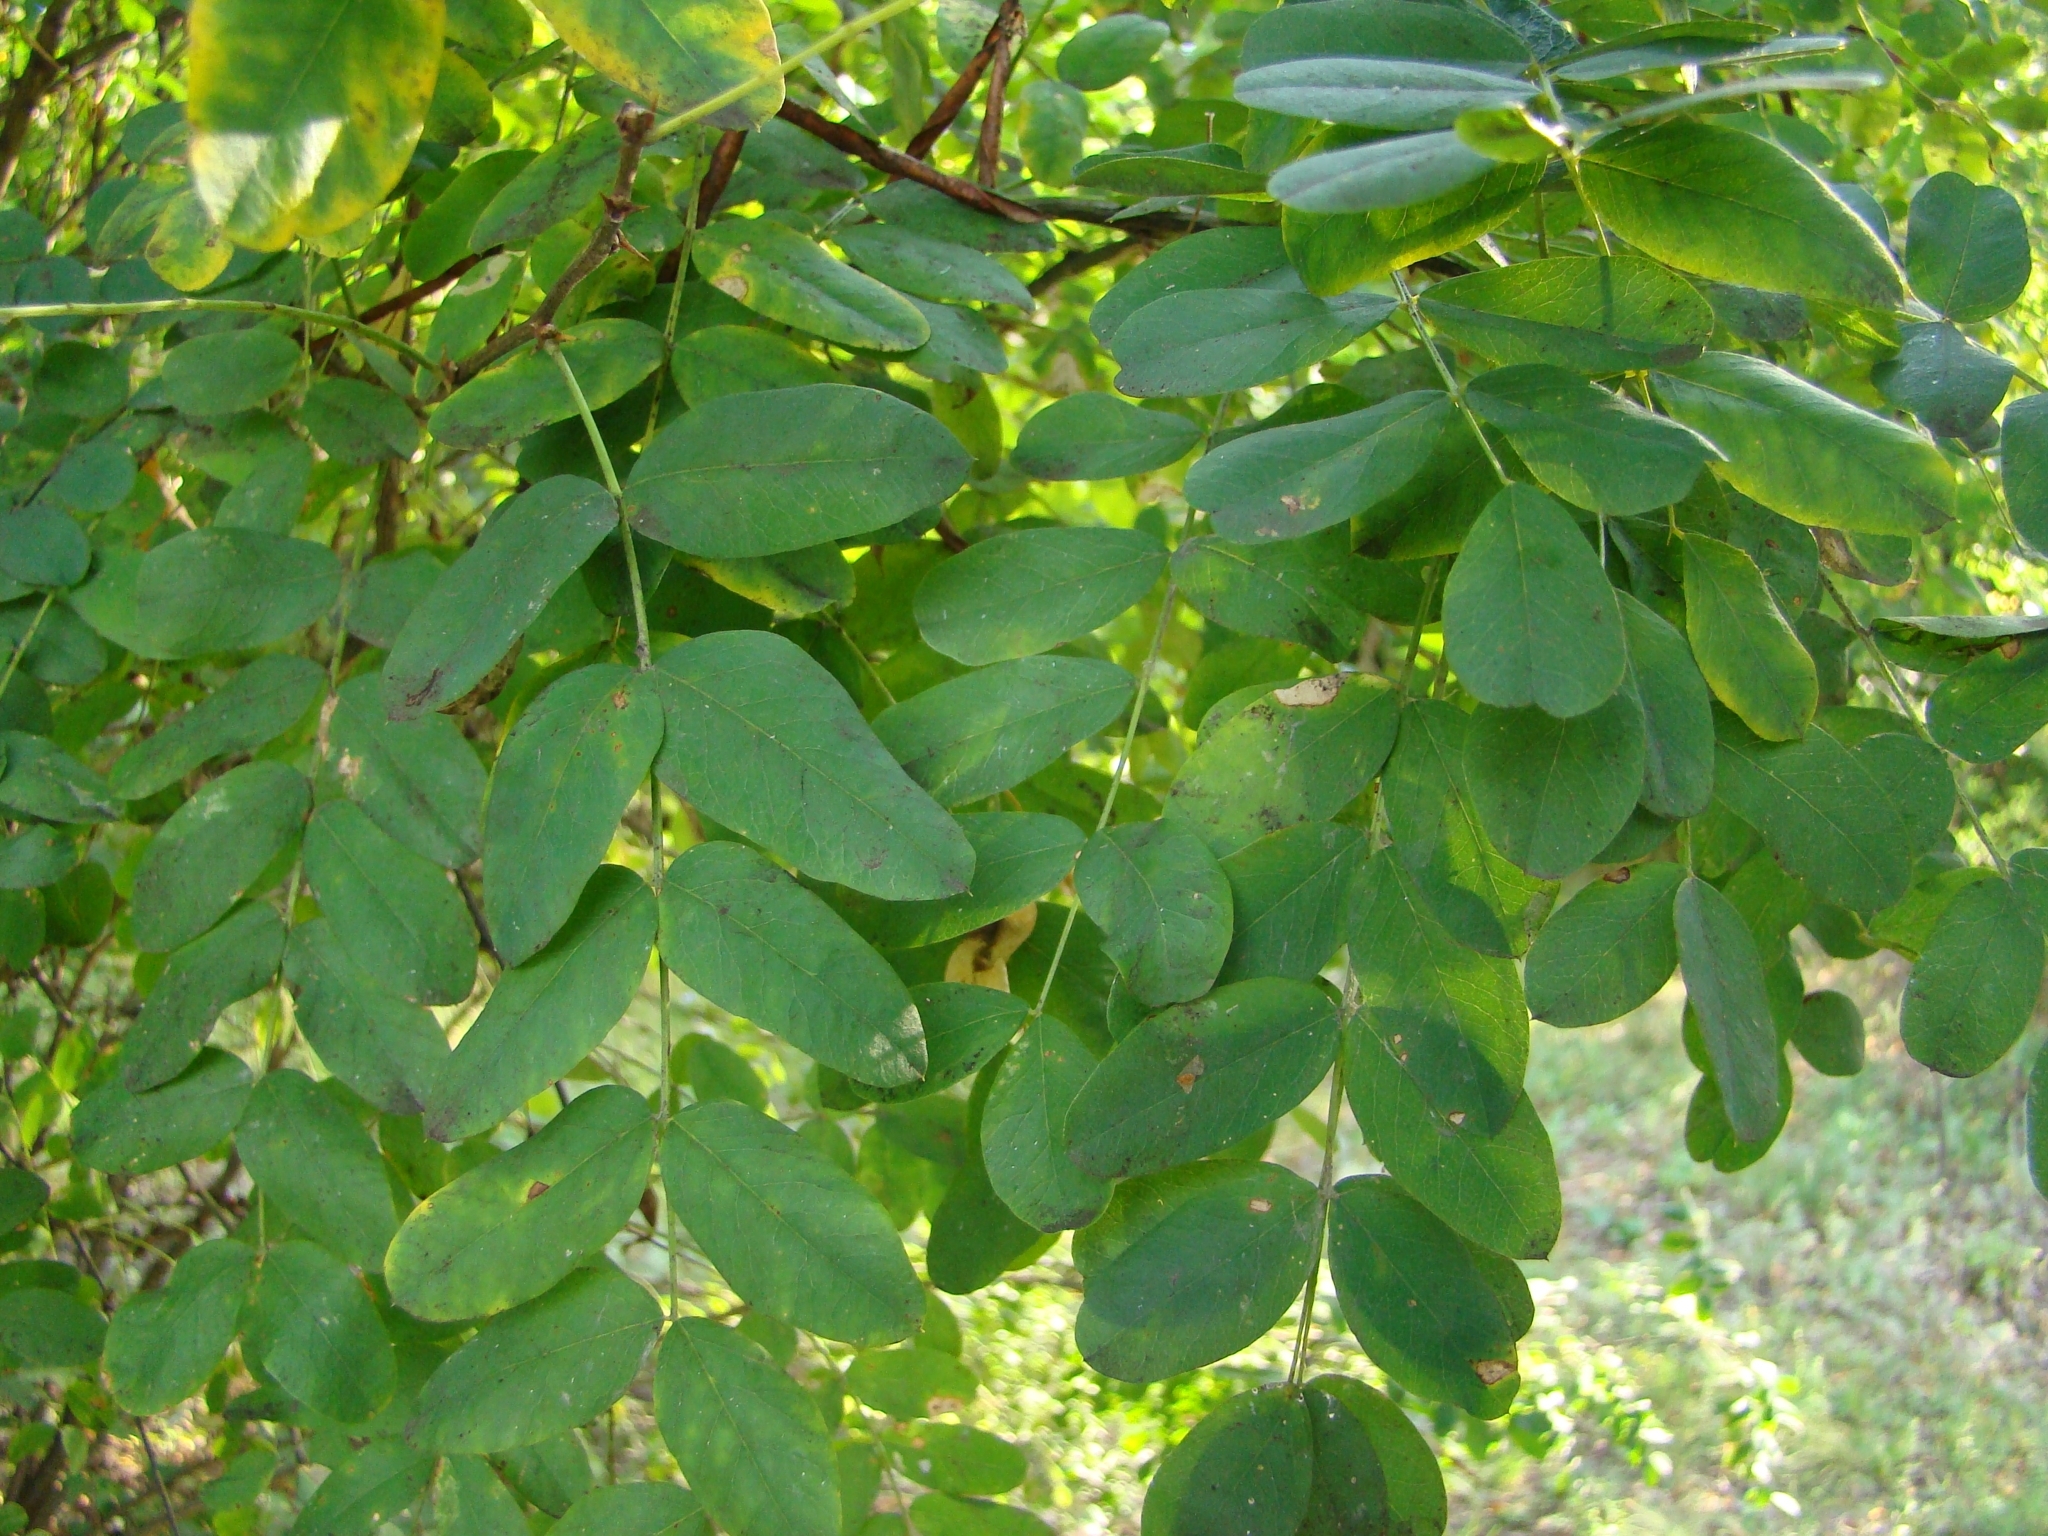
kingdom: Plantae
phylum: Tracheophyta
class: Magnoliopsida
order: Fabales
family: Fabaceae
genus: Robinia
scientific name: Robinia pseudoacacia
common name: Black locust
